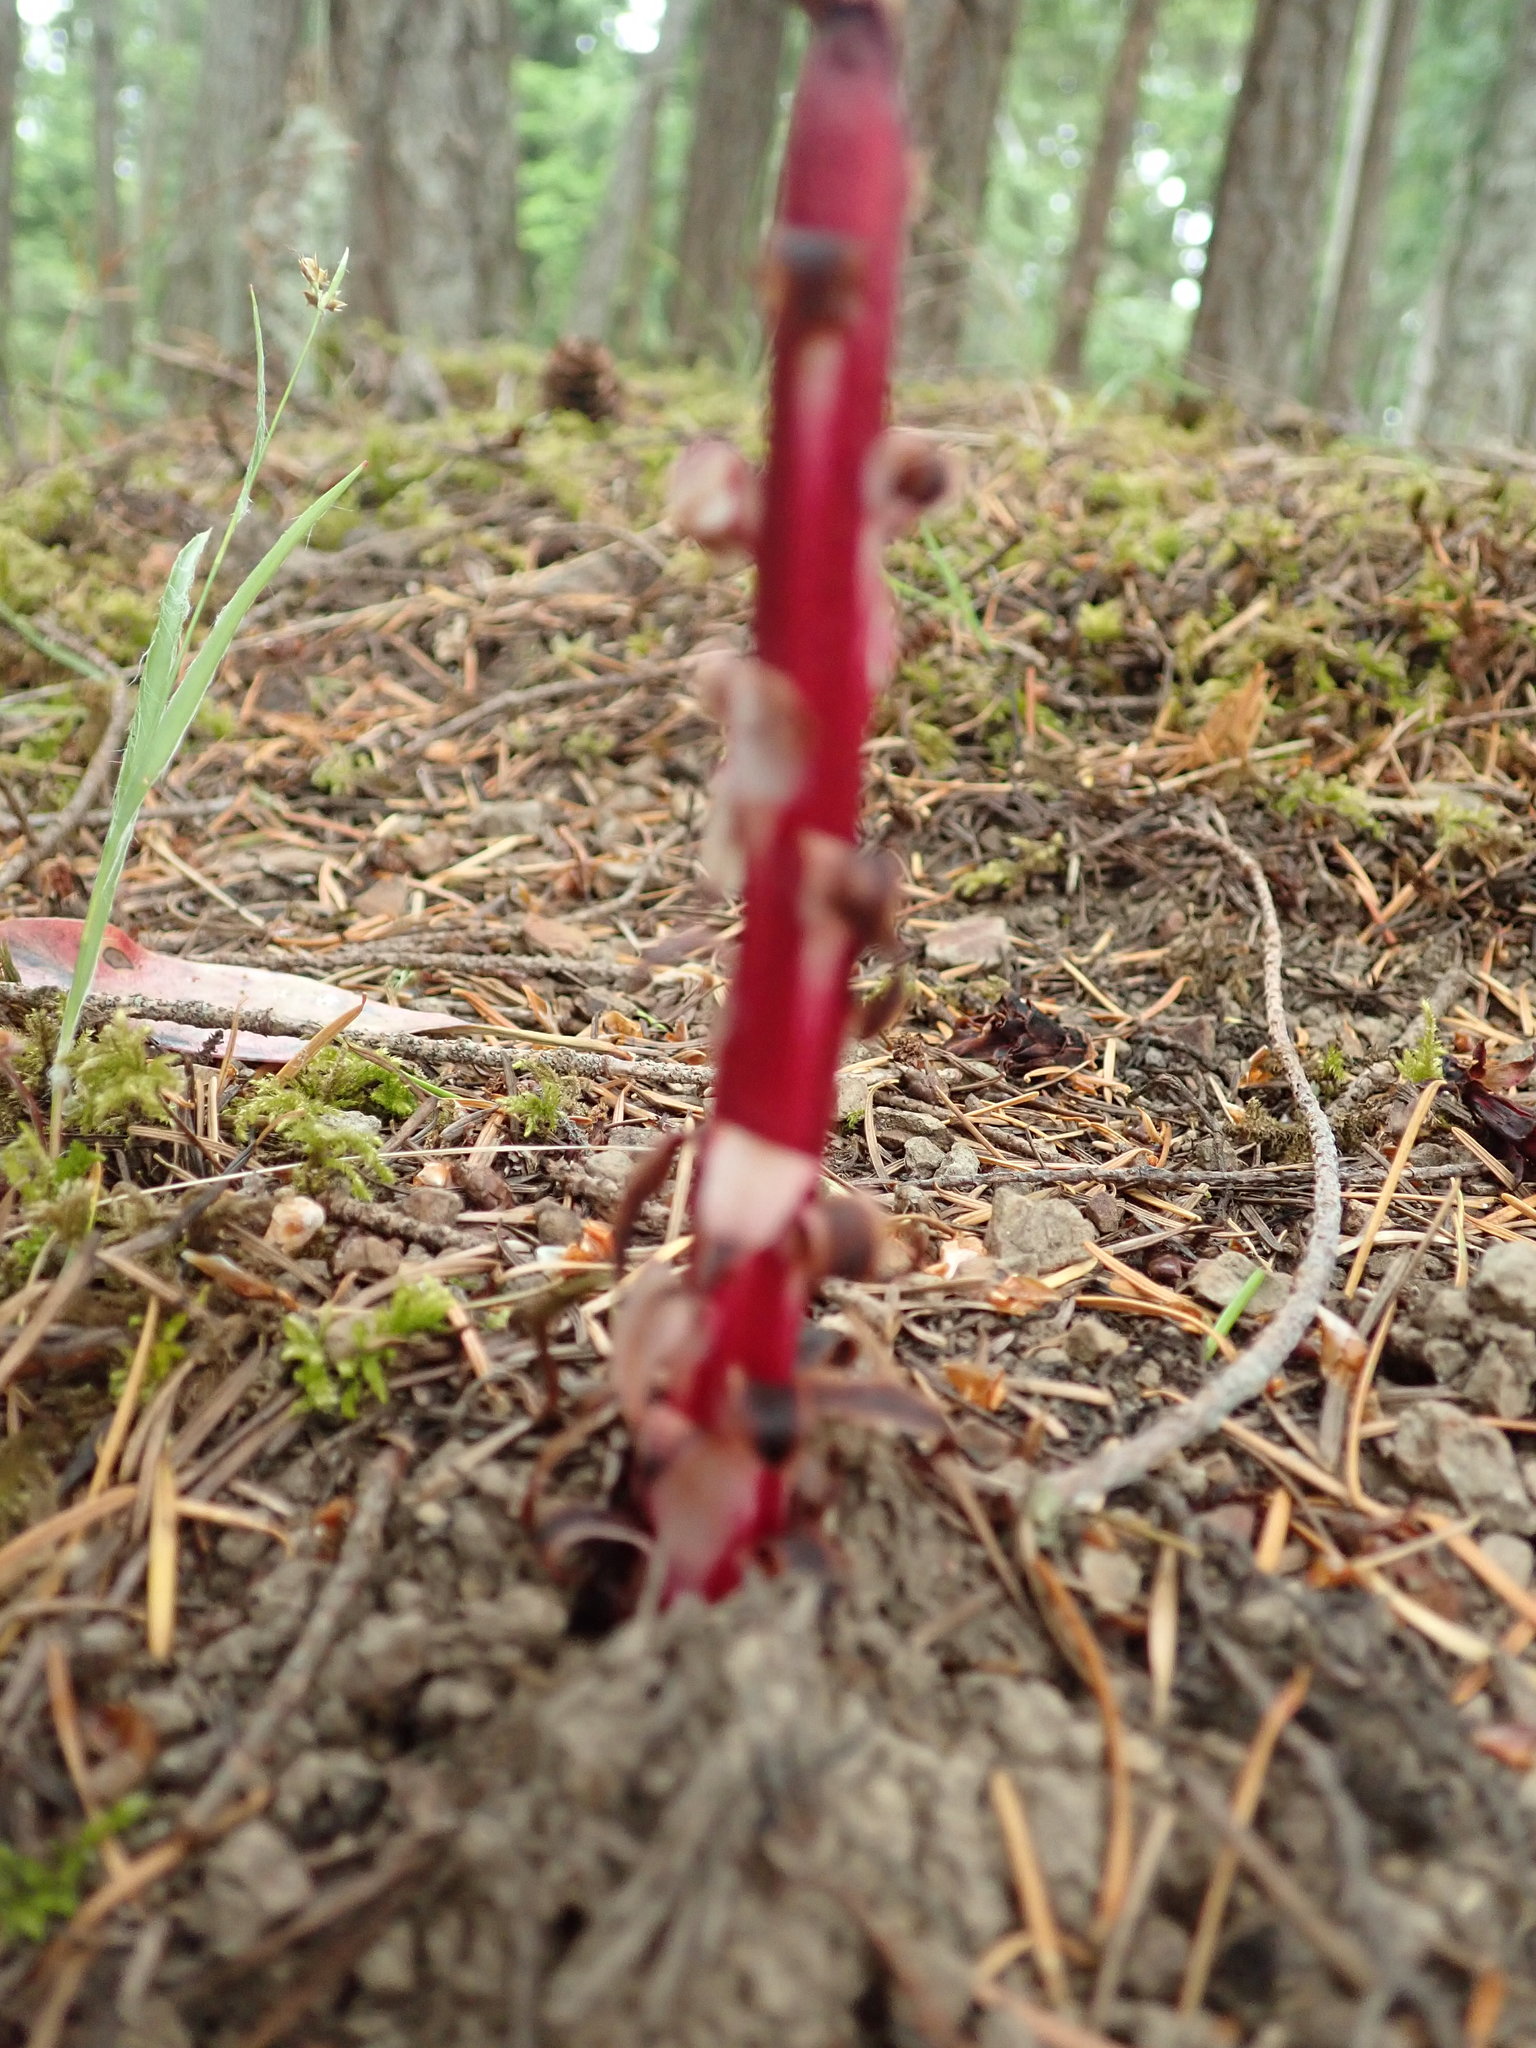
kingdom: Plantae
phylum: Tracheophyta
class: Magnoliopsida
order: Ericales
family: Ericaceae
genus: Allotropa
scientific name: Allotropa virgata
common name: Candy-striped allotropa
